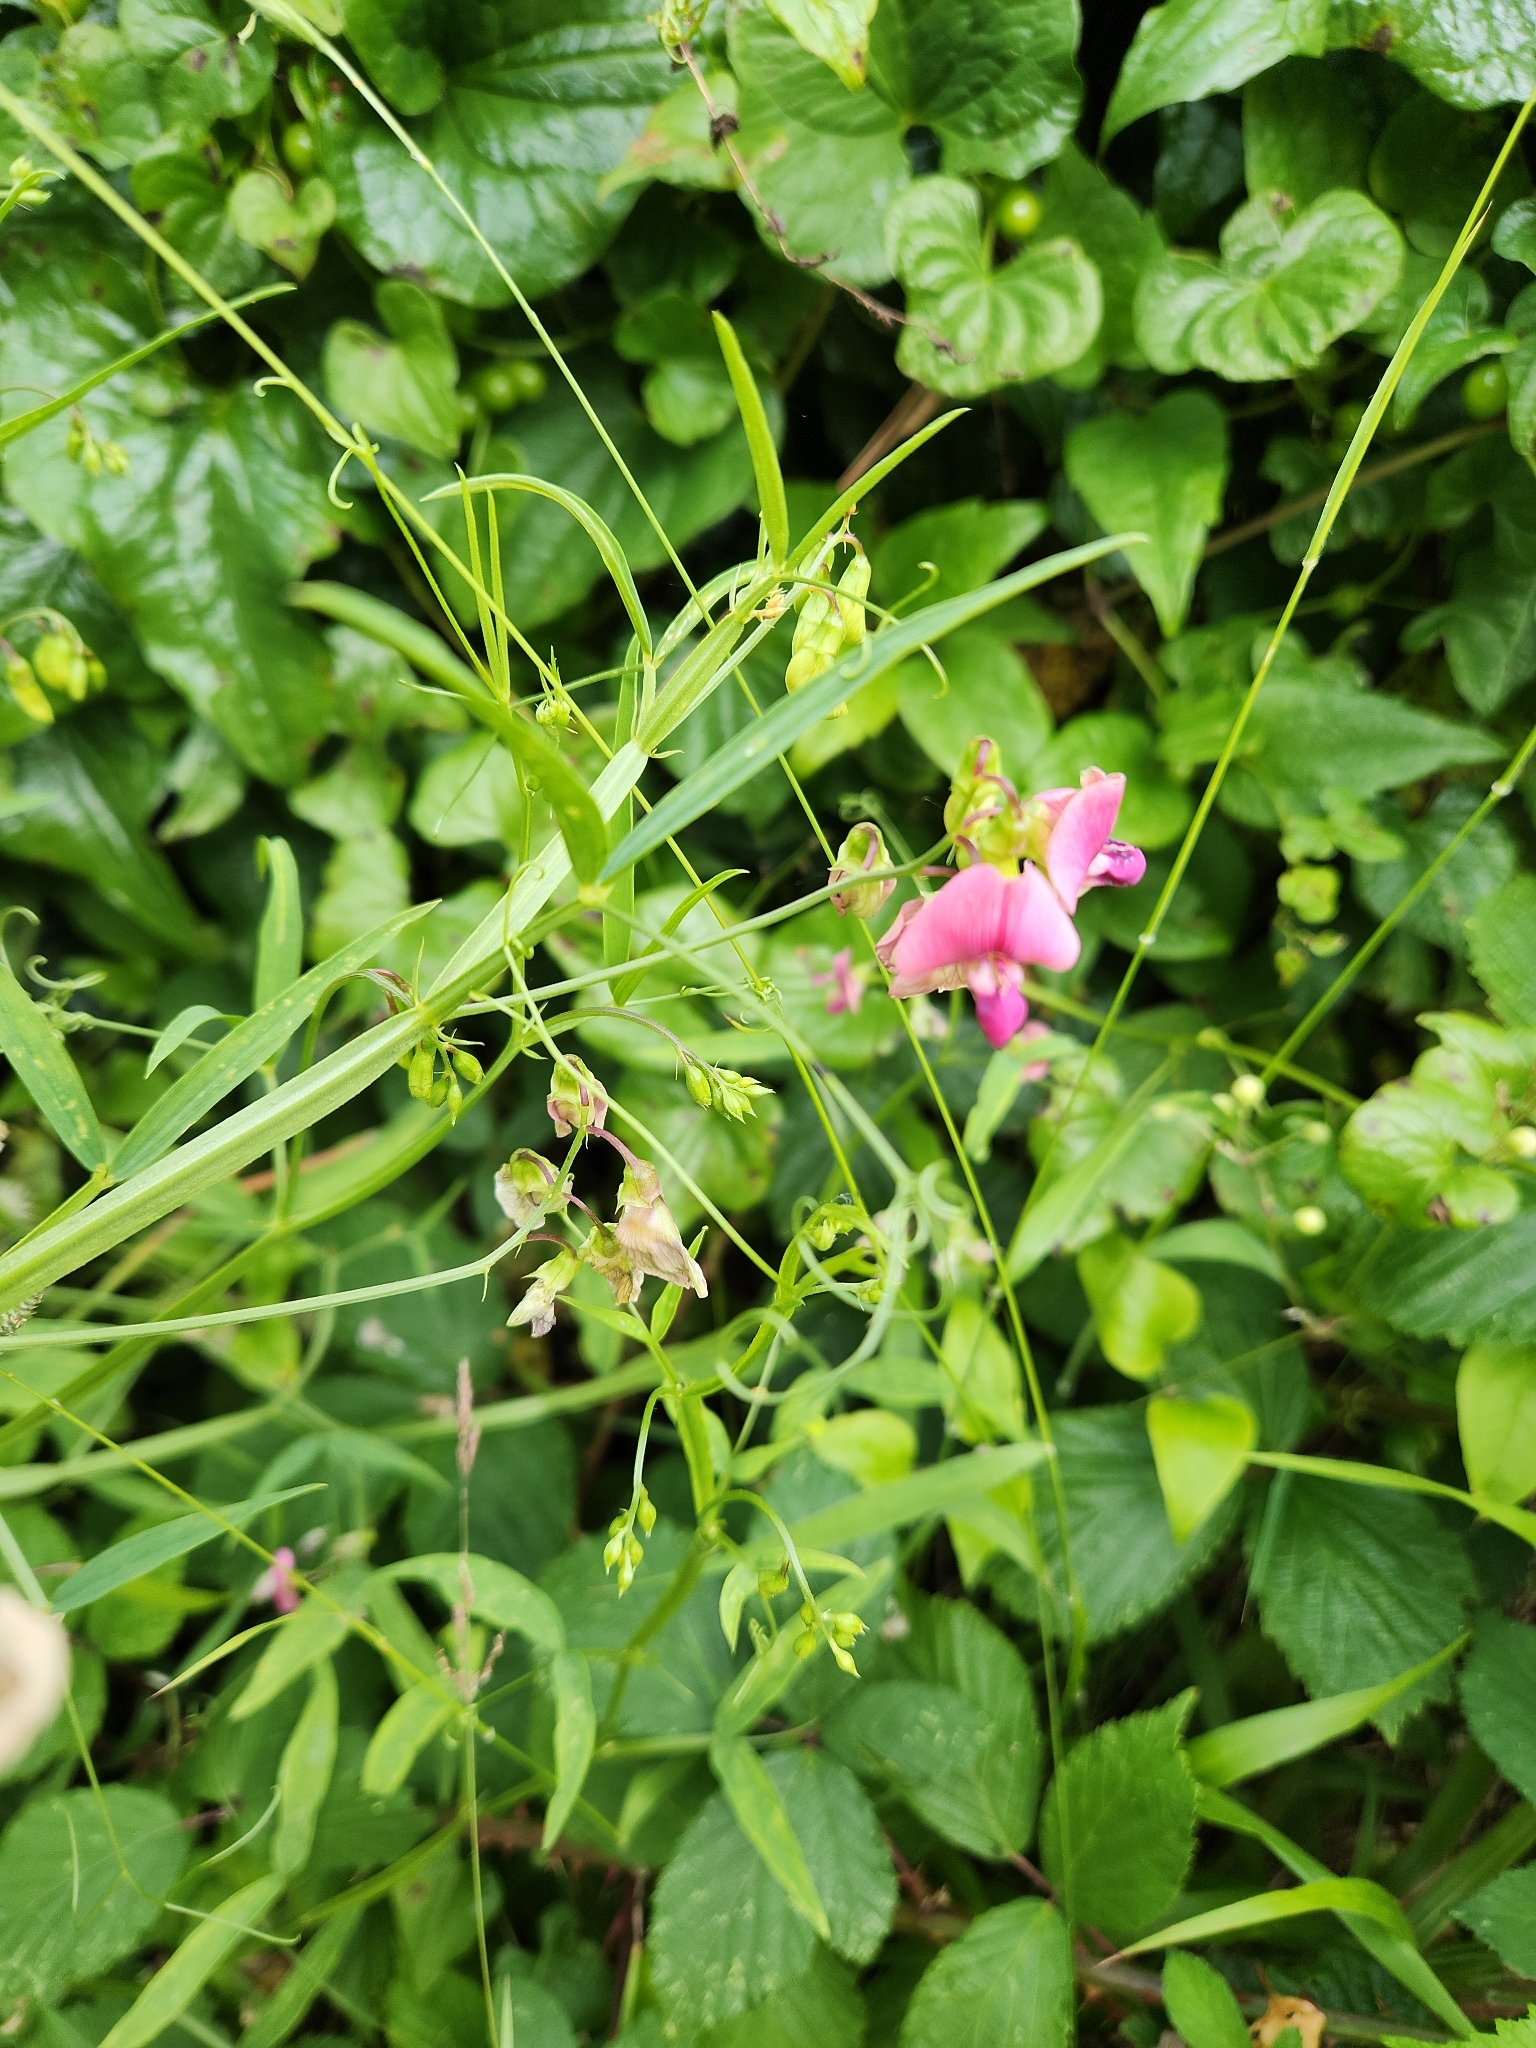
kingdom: Plantae
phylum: Tracheophyta
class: Magnoliopsida
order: Fabales
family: Fabaceae
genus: Lathyrus
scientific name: Lathyrus sylvestris
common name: Flat pea
